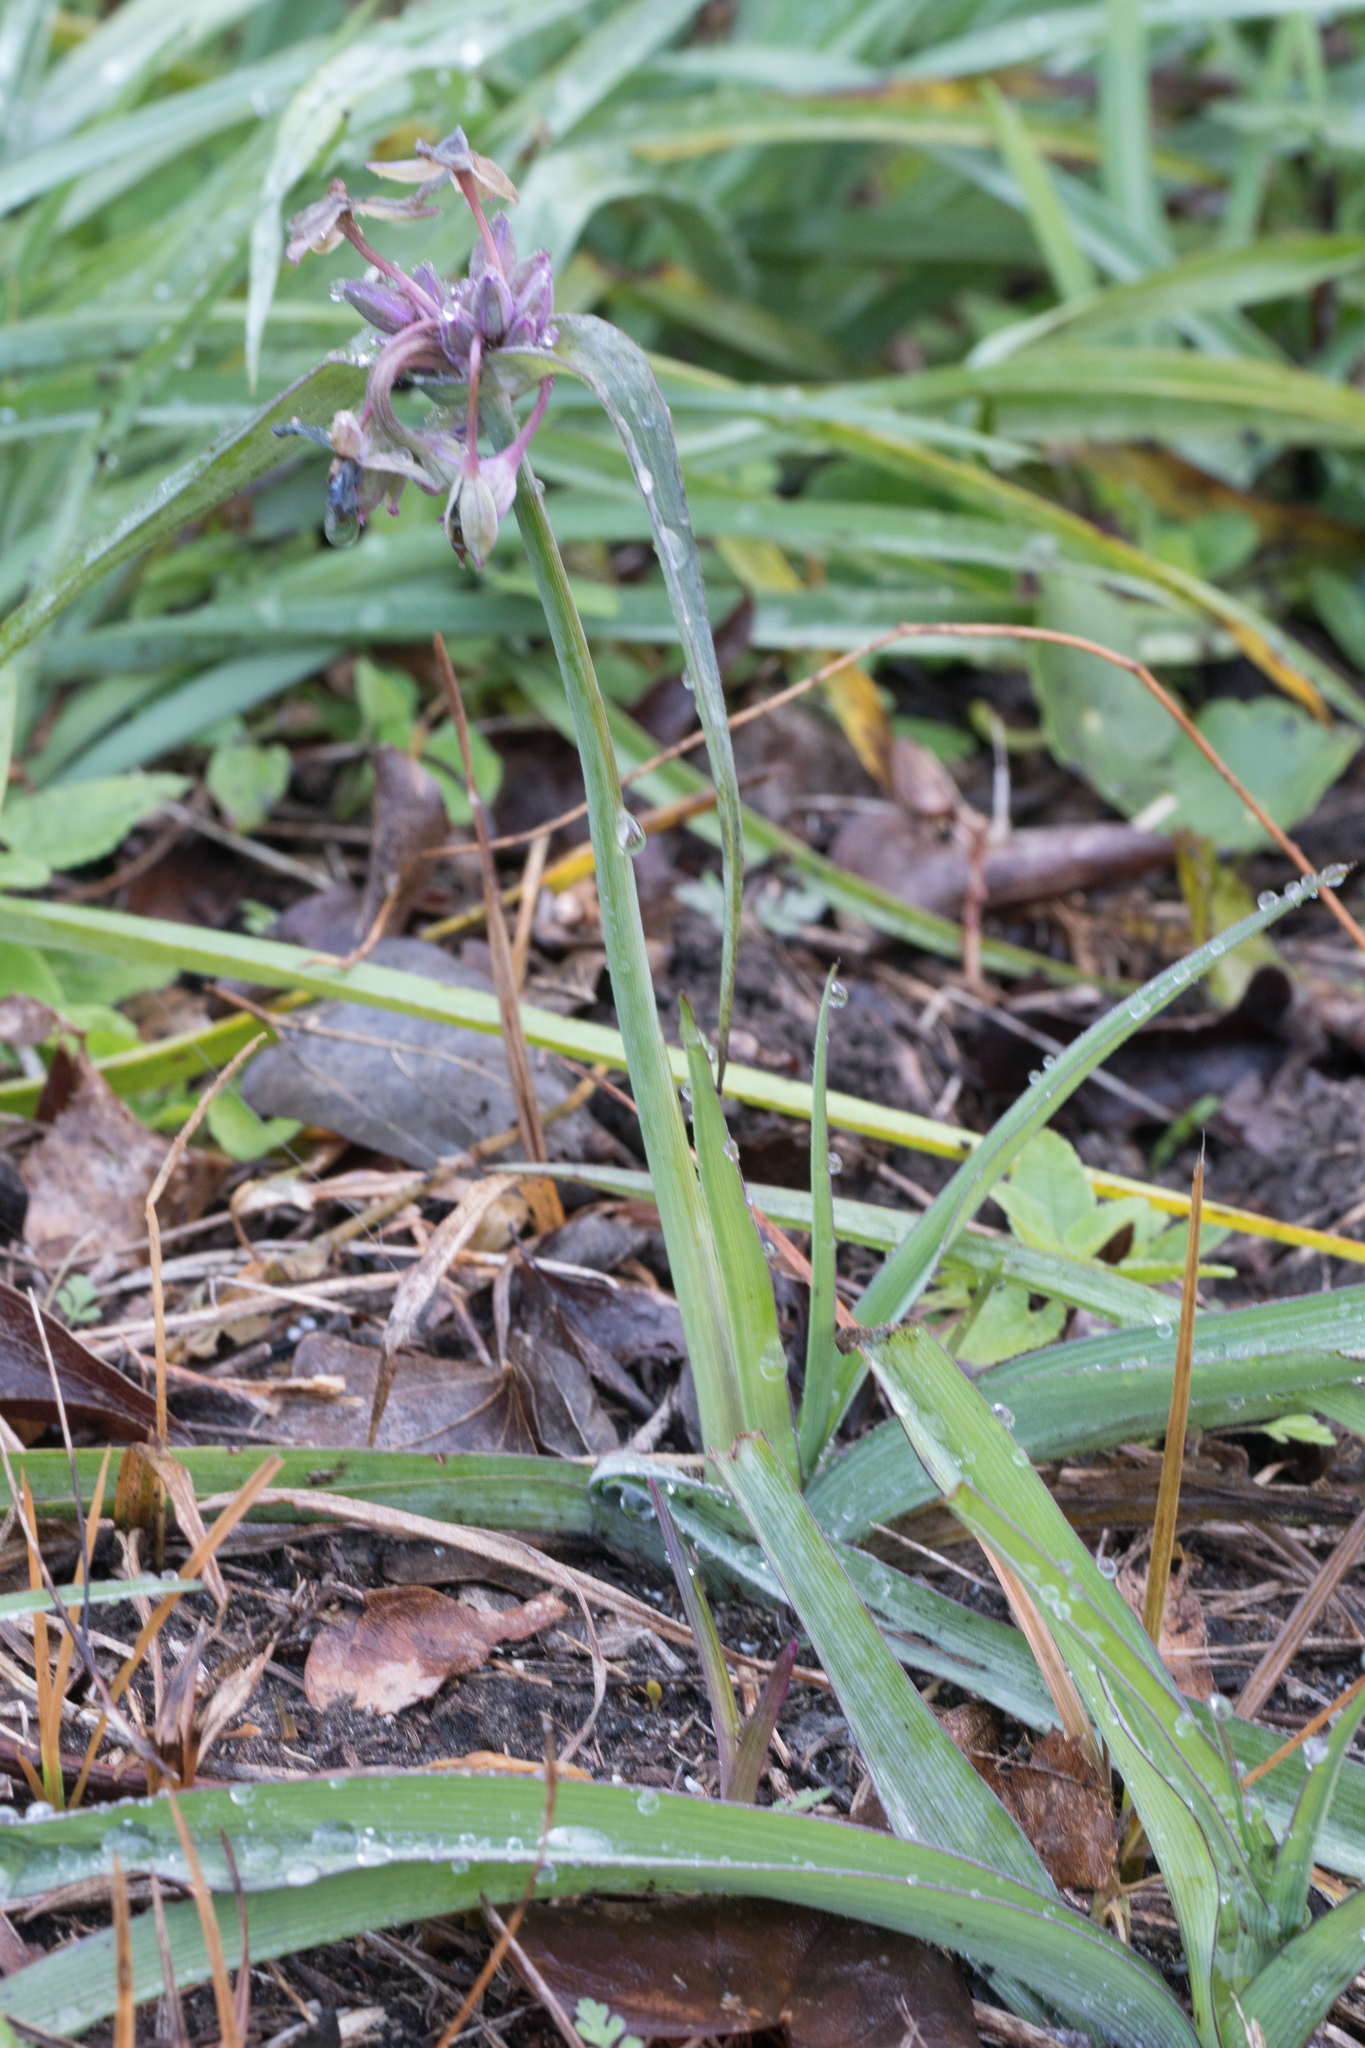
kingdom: Plantae
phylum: Tracheophyta
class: Liliopsida
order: Commelinales
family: Commelinaceae
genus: Tradescantia
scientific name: Tradescantia ohiensis
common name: Ohio spiderwort
